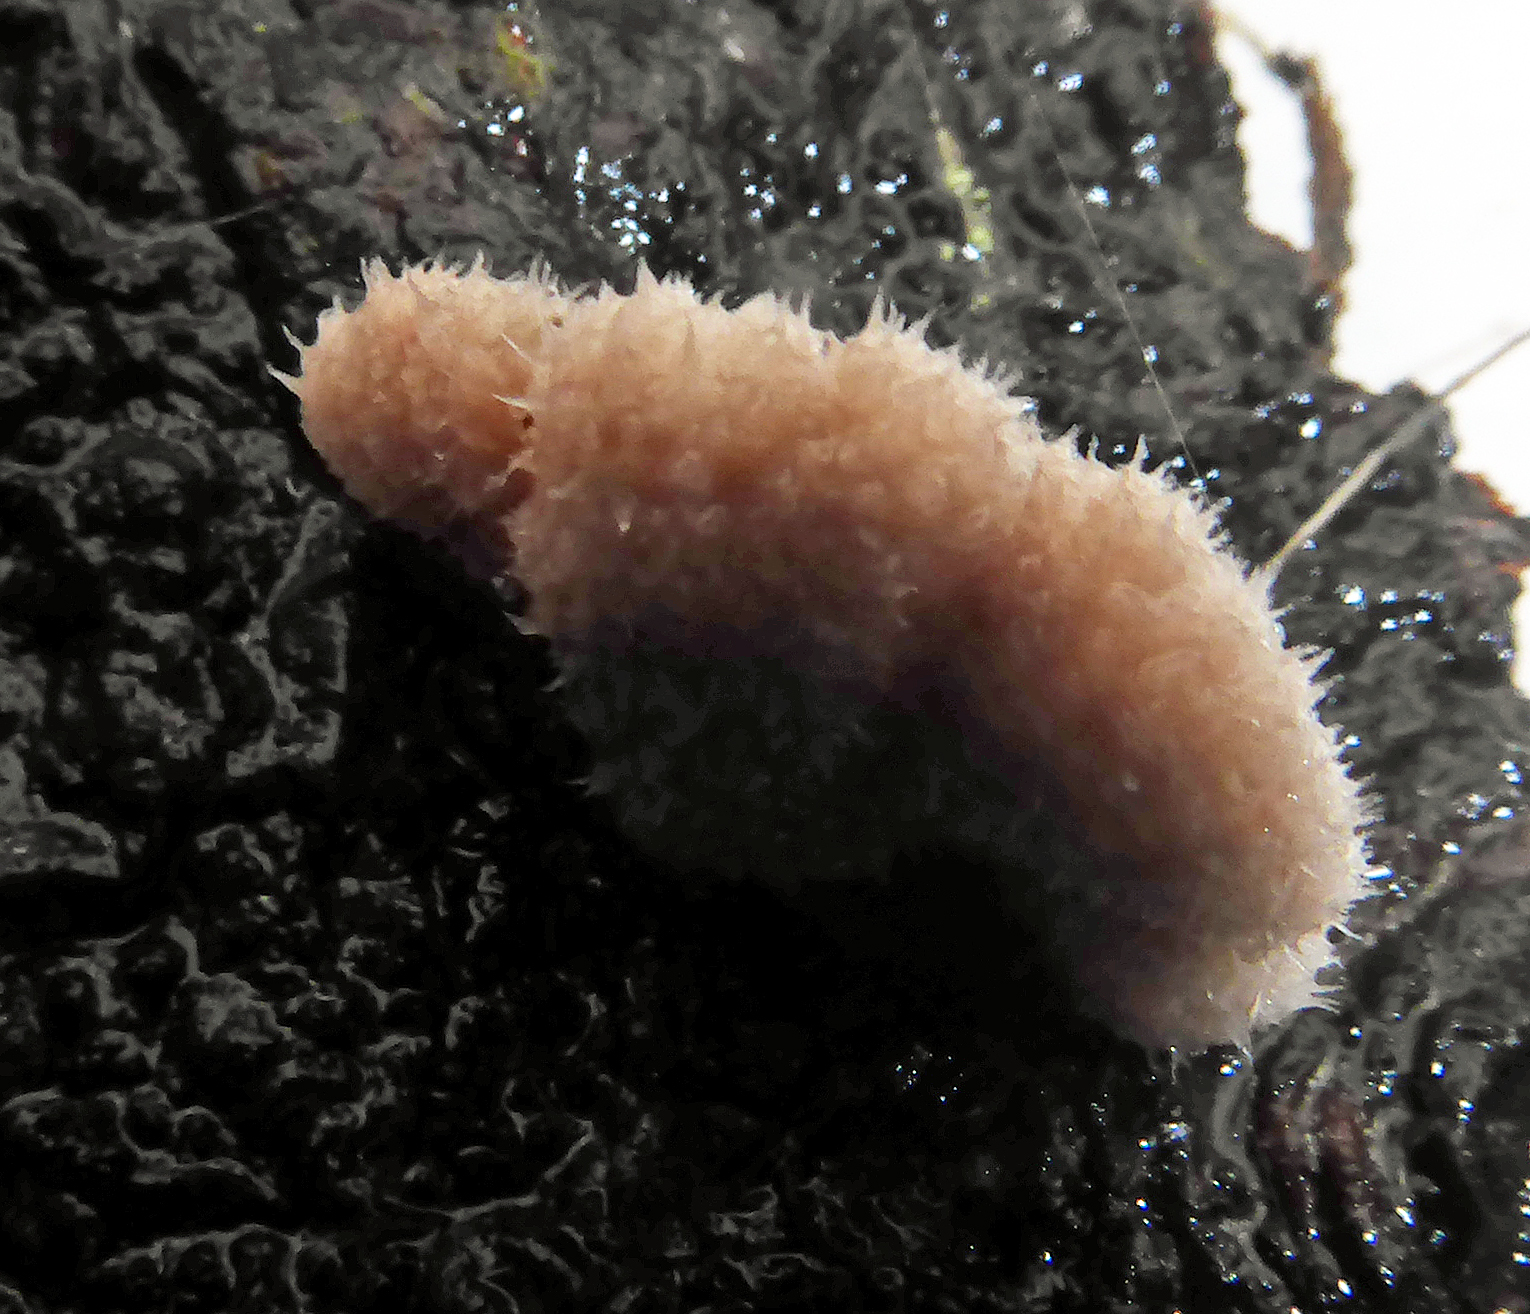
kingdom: Fungi
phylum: Basidiomycota
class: Agaricomycetes
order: Agaricales
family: Schizophyllaceae
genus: Schizophyllum
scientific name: Schizophyllum commune
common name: Common porecrust
